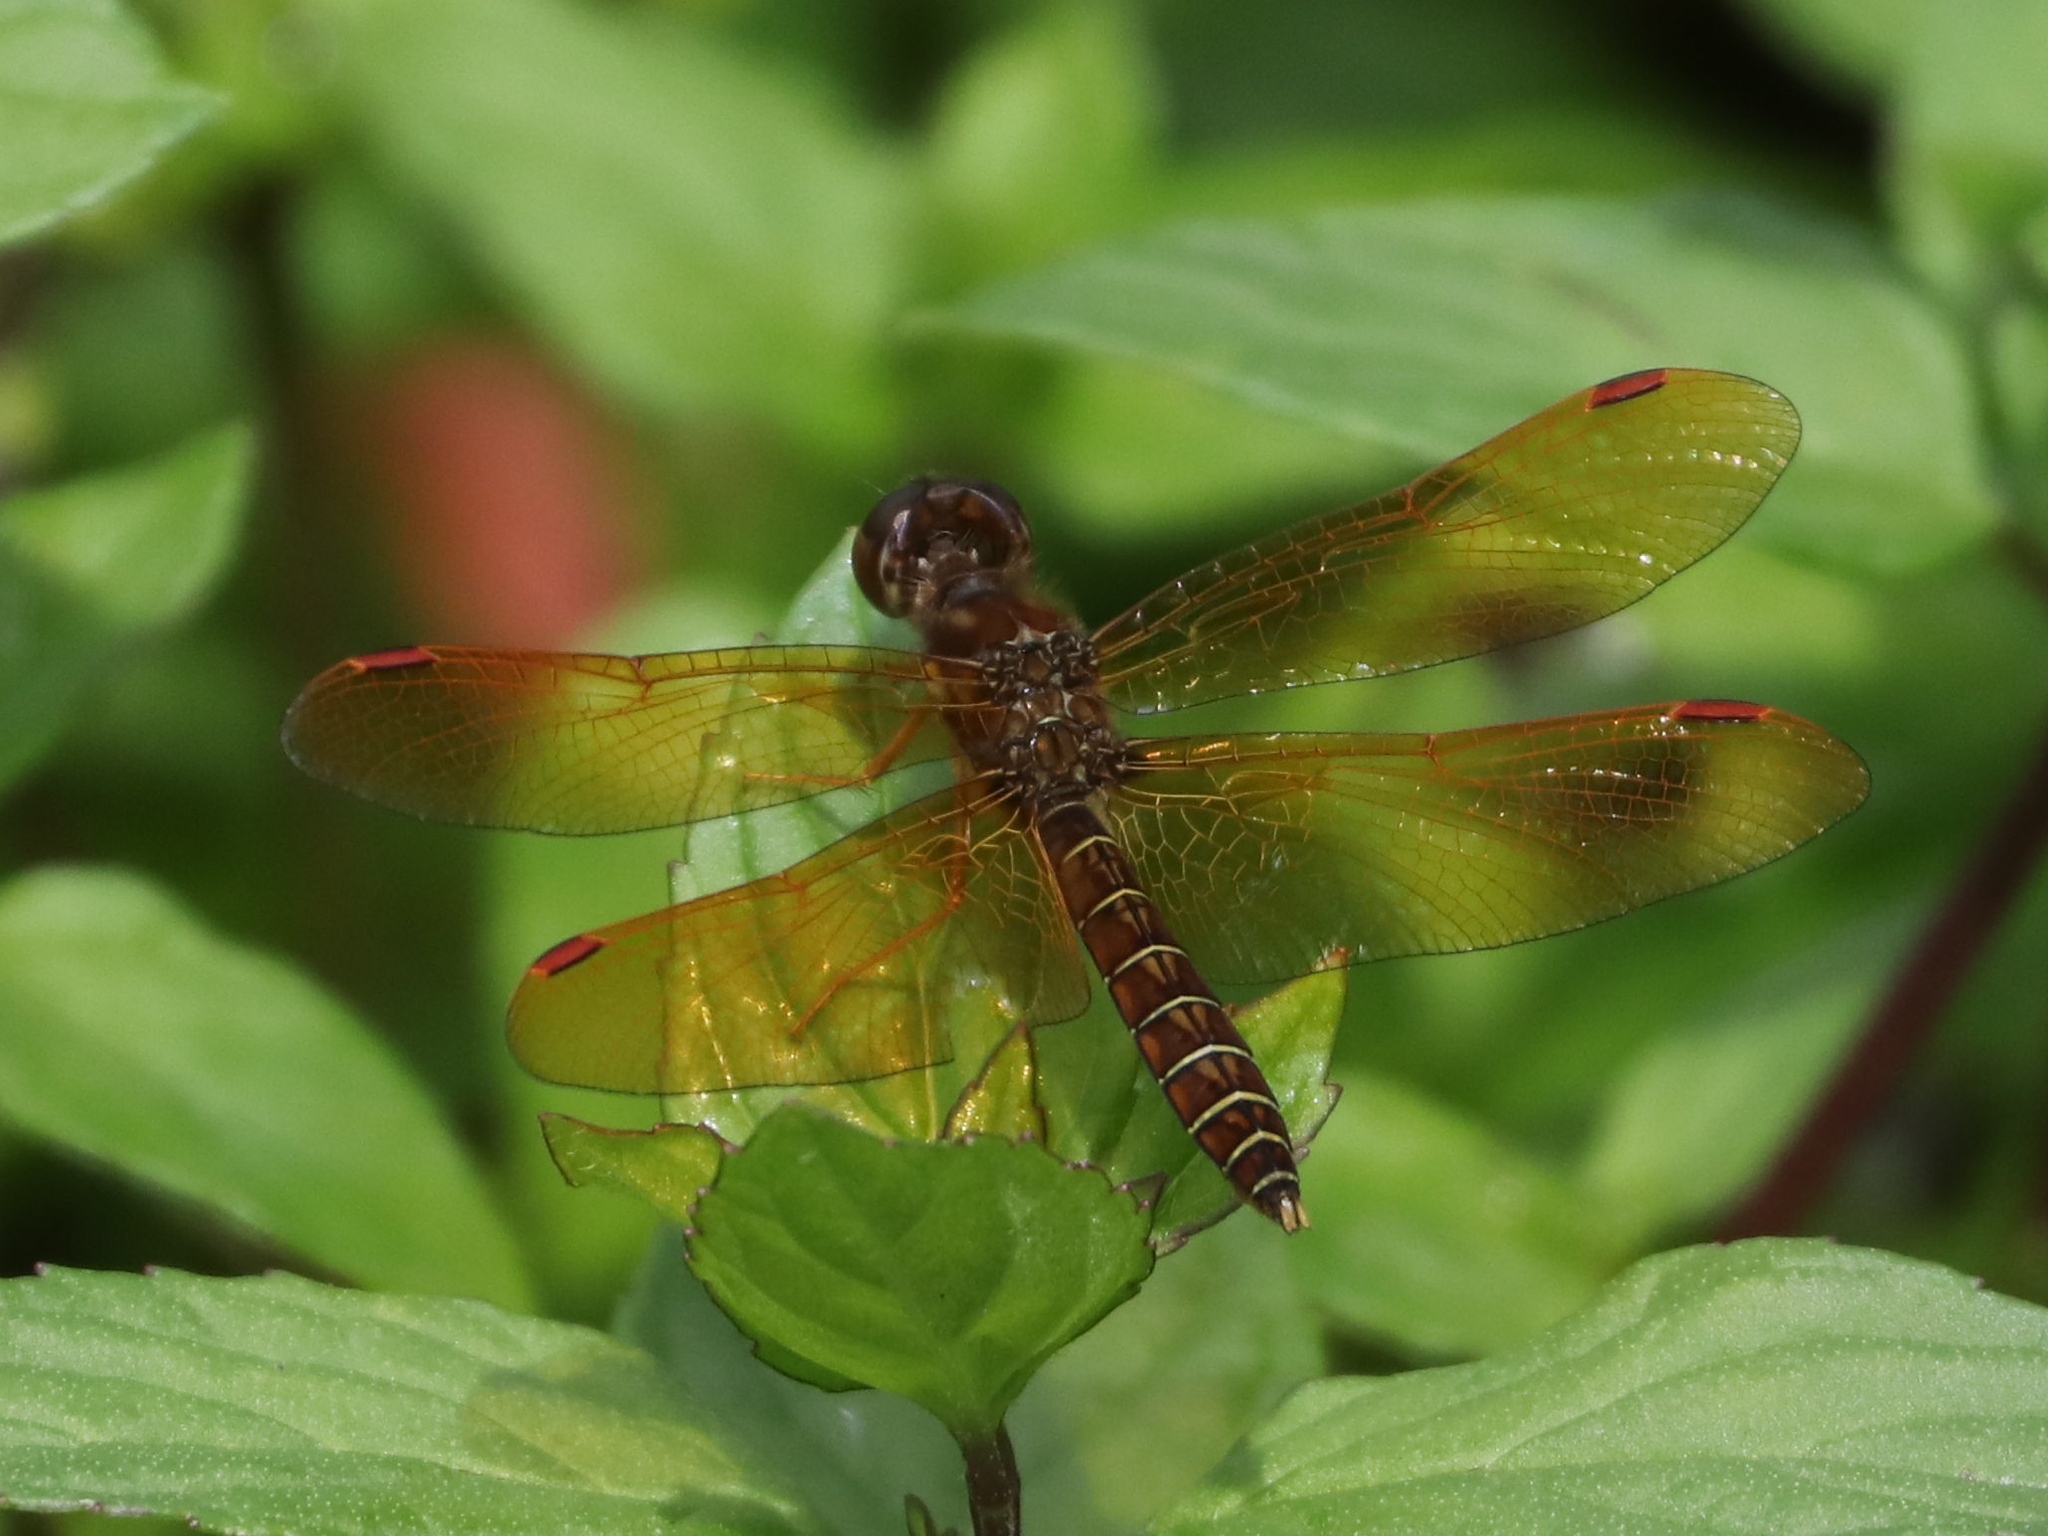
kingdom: Animalia
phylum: Arthropoda
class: Insecta
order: Odonata
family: Libellulidae
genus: Perithemis
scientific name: Perithemis tenera
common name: Eastern amberwing
